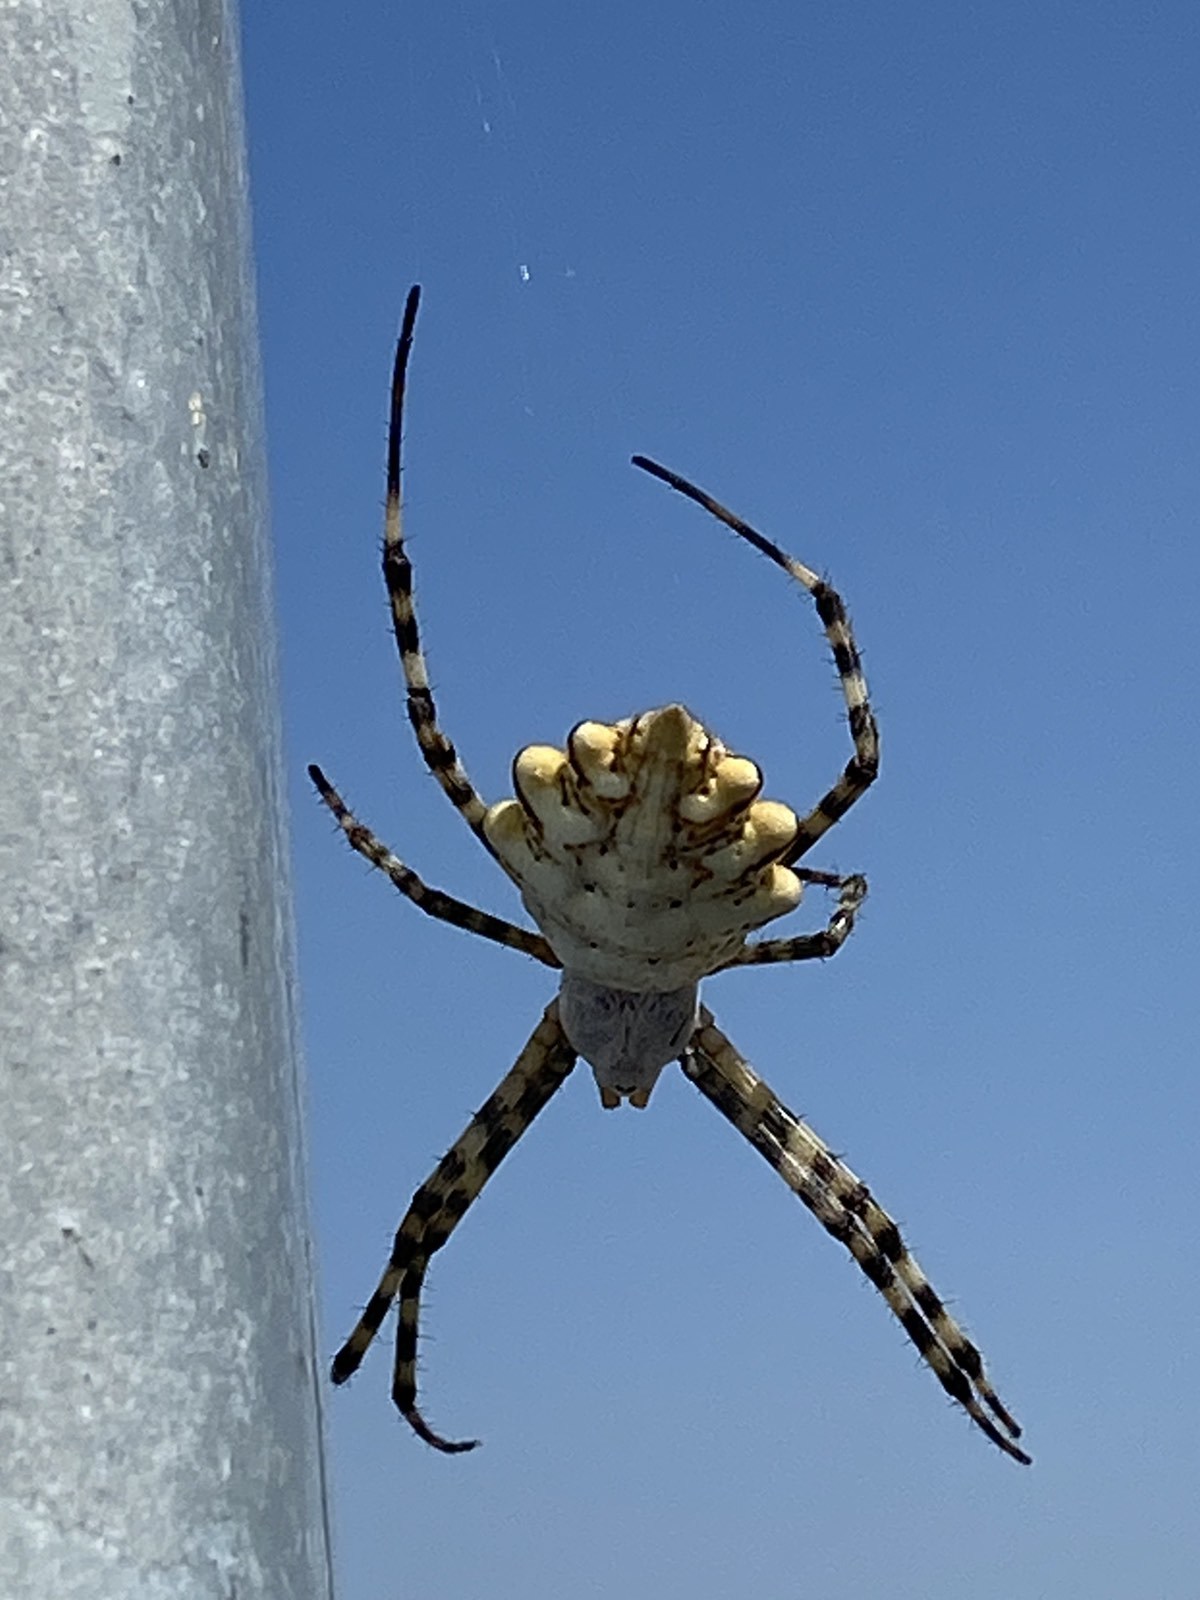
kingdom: Animalia
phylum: Arthropoda
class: Arachnida
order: Araneae
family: Araneidae
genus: Argiope
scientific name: Argiope lobata
